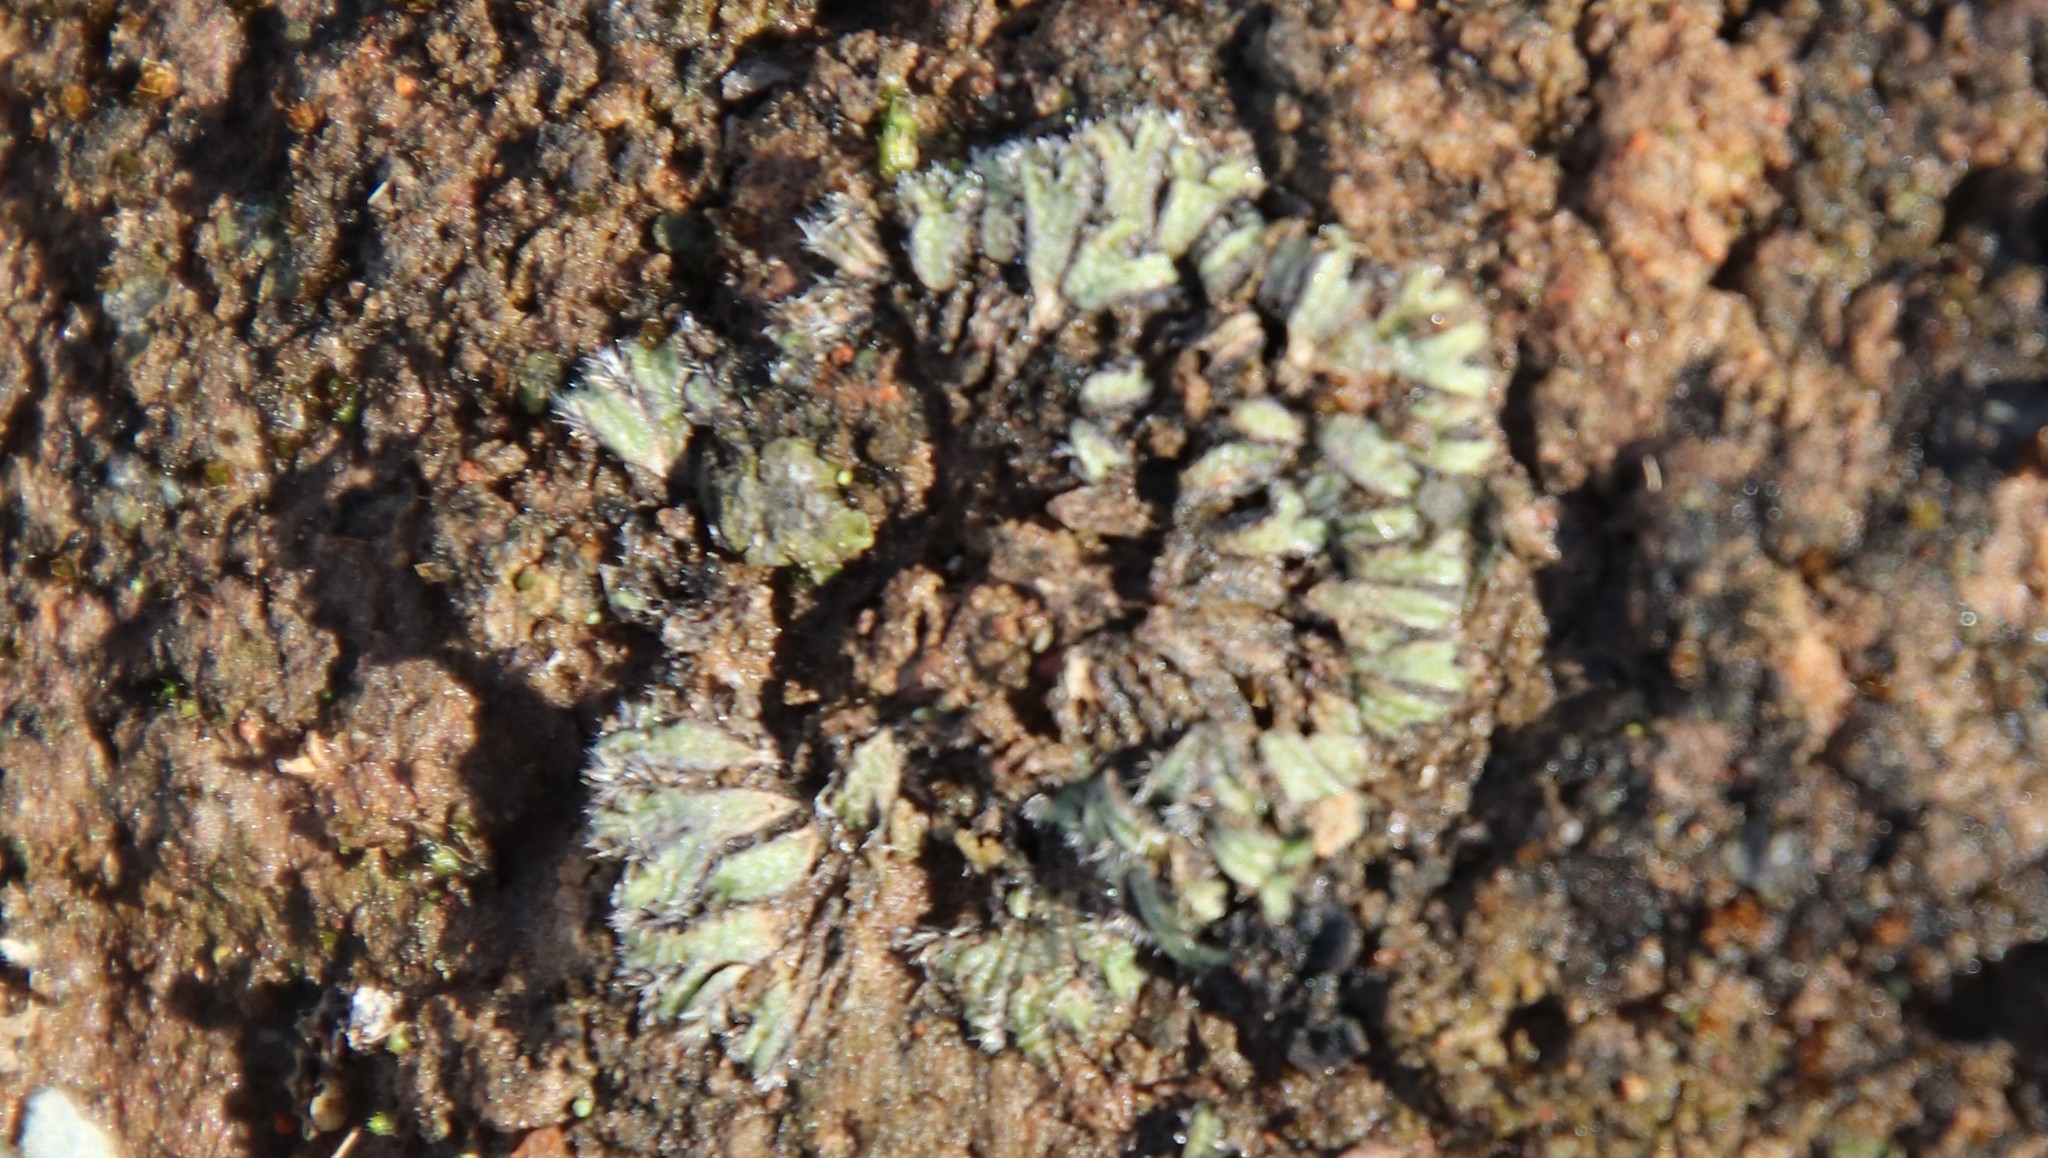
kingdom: Plantae
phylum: Marchantiophyta
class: Marchantiopsida
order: Marchantiales
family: Ricciaceae
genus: Riccia
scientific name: Riccia trichocarpa
